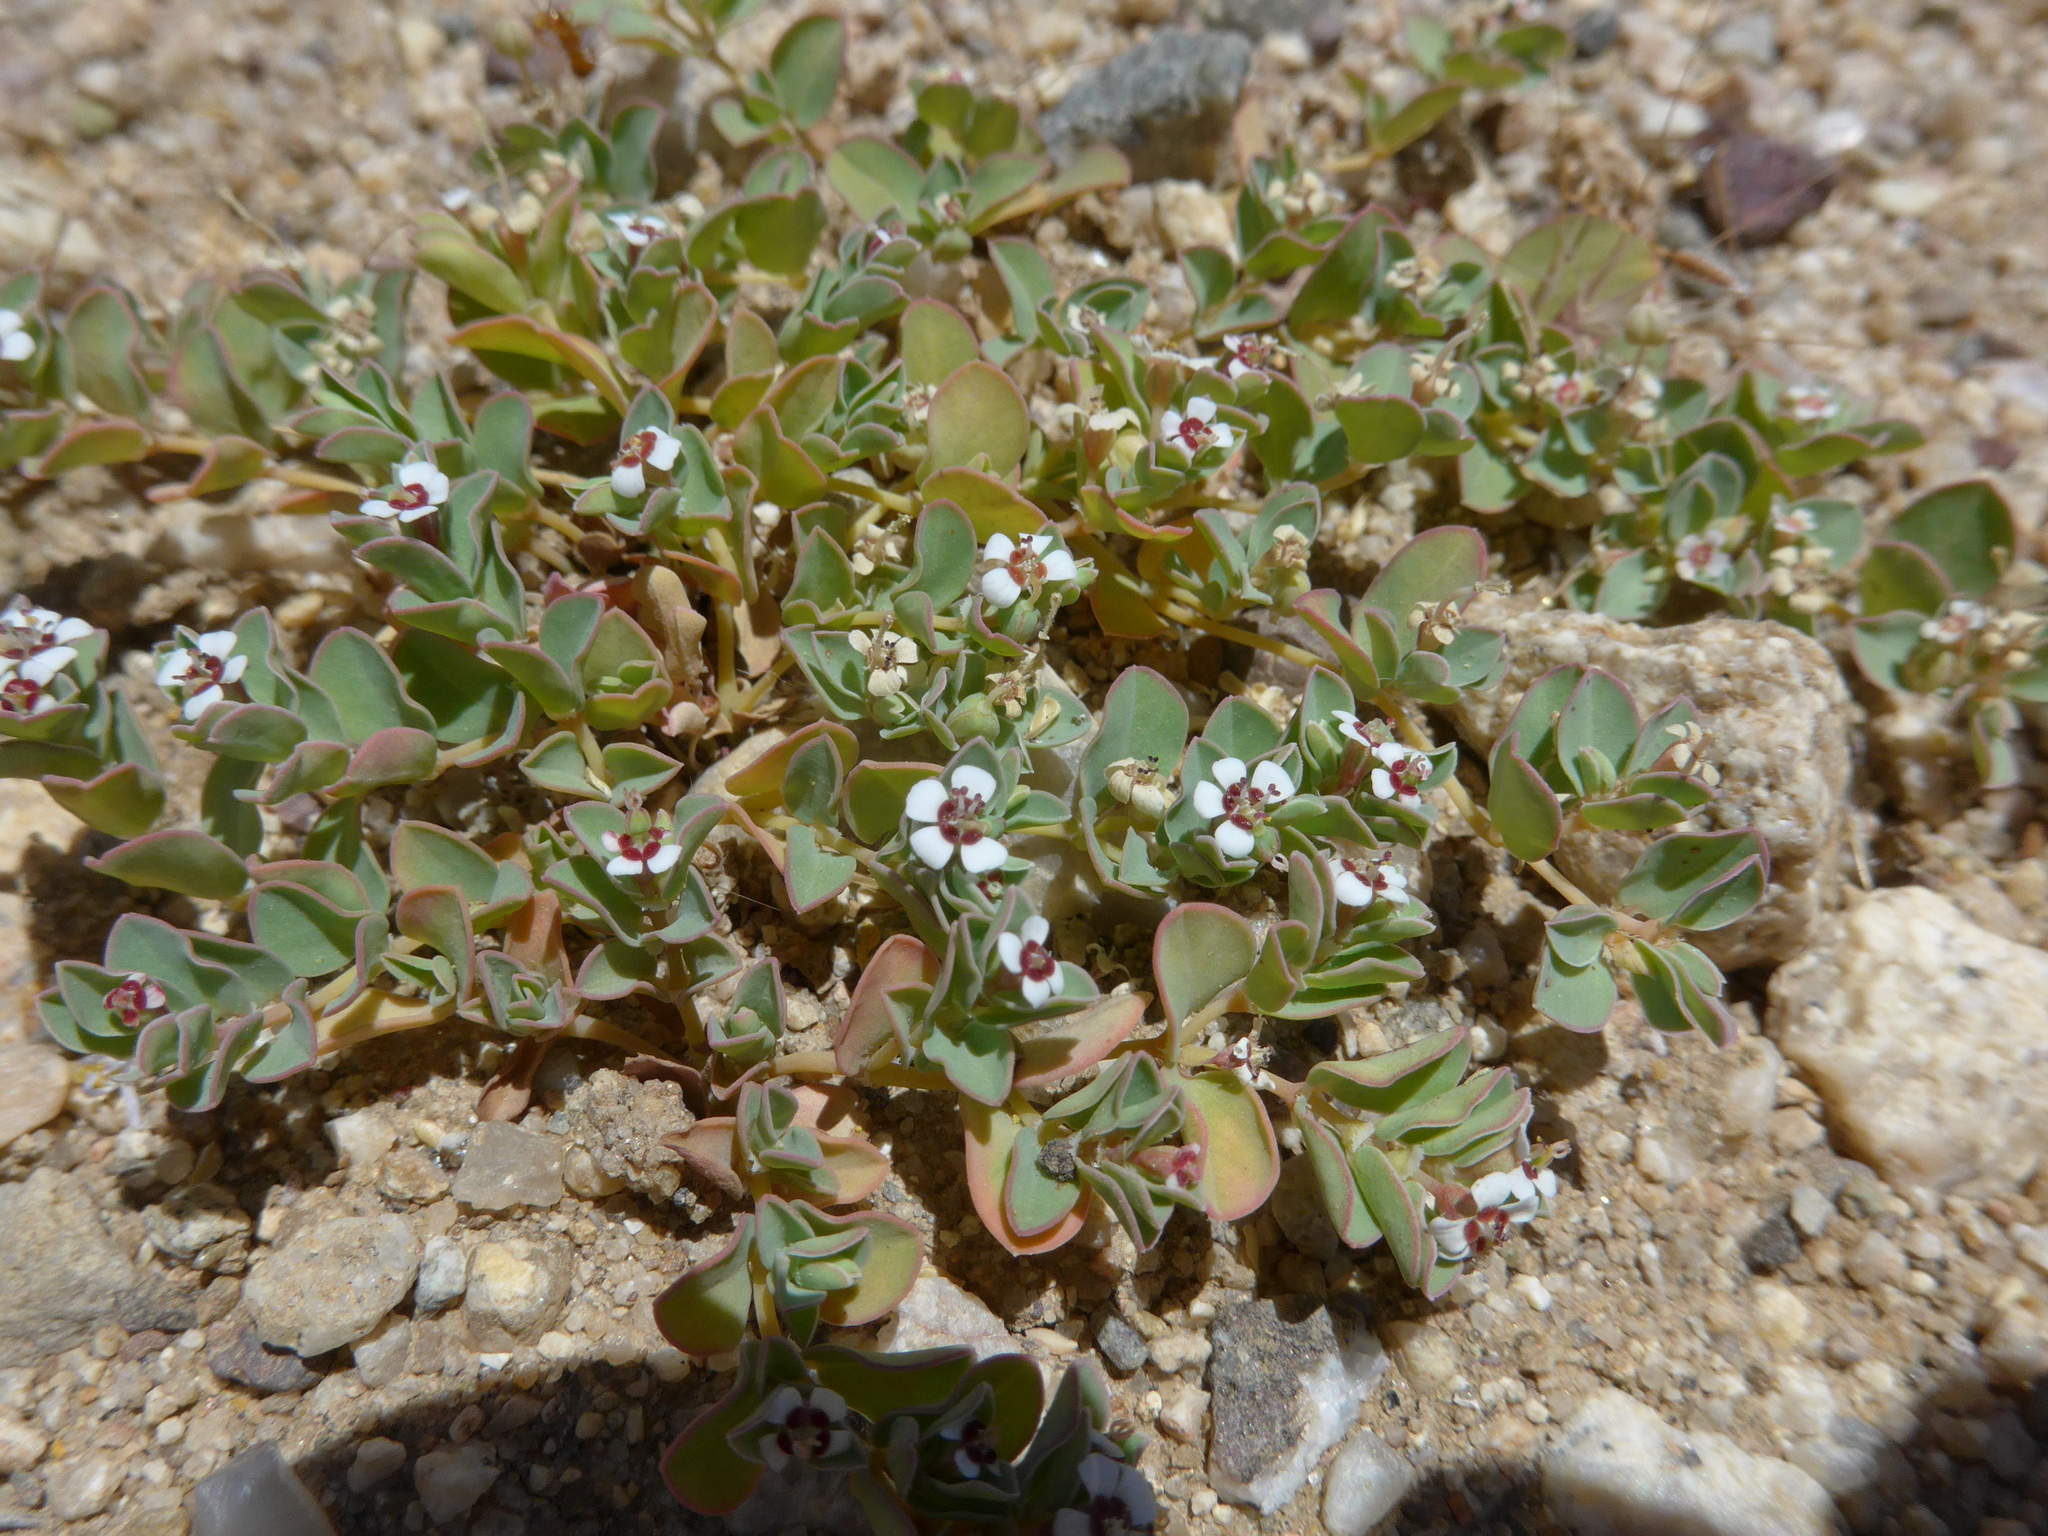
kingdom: Plantae
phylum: Tracheophyta
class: Magnoliopsida
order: Malpighiales
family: Euphorbiaceae
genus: Euphorbia
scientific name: Euphorbia albomarginata
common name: Whitemargin sandmat
